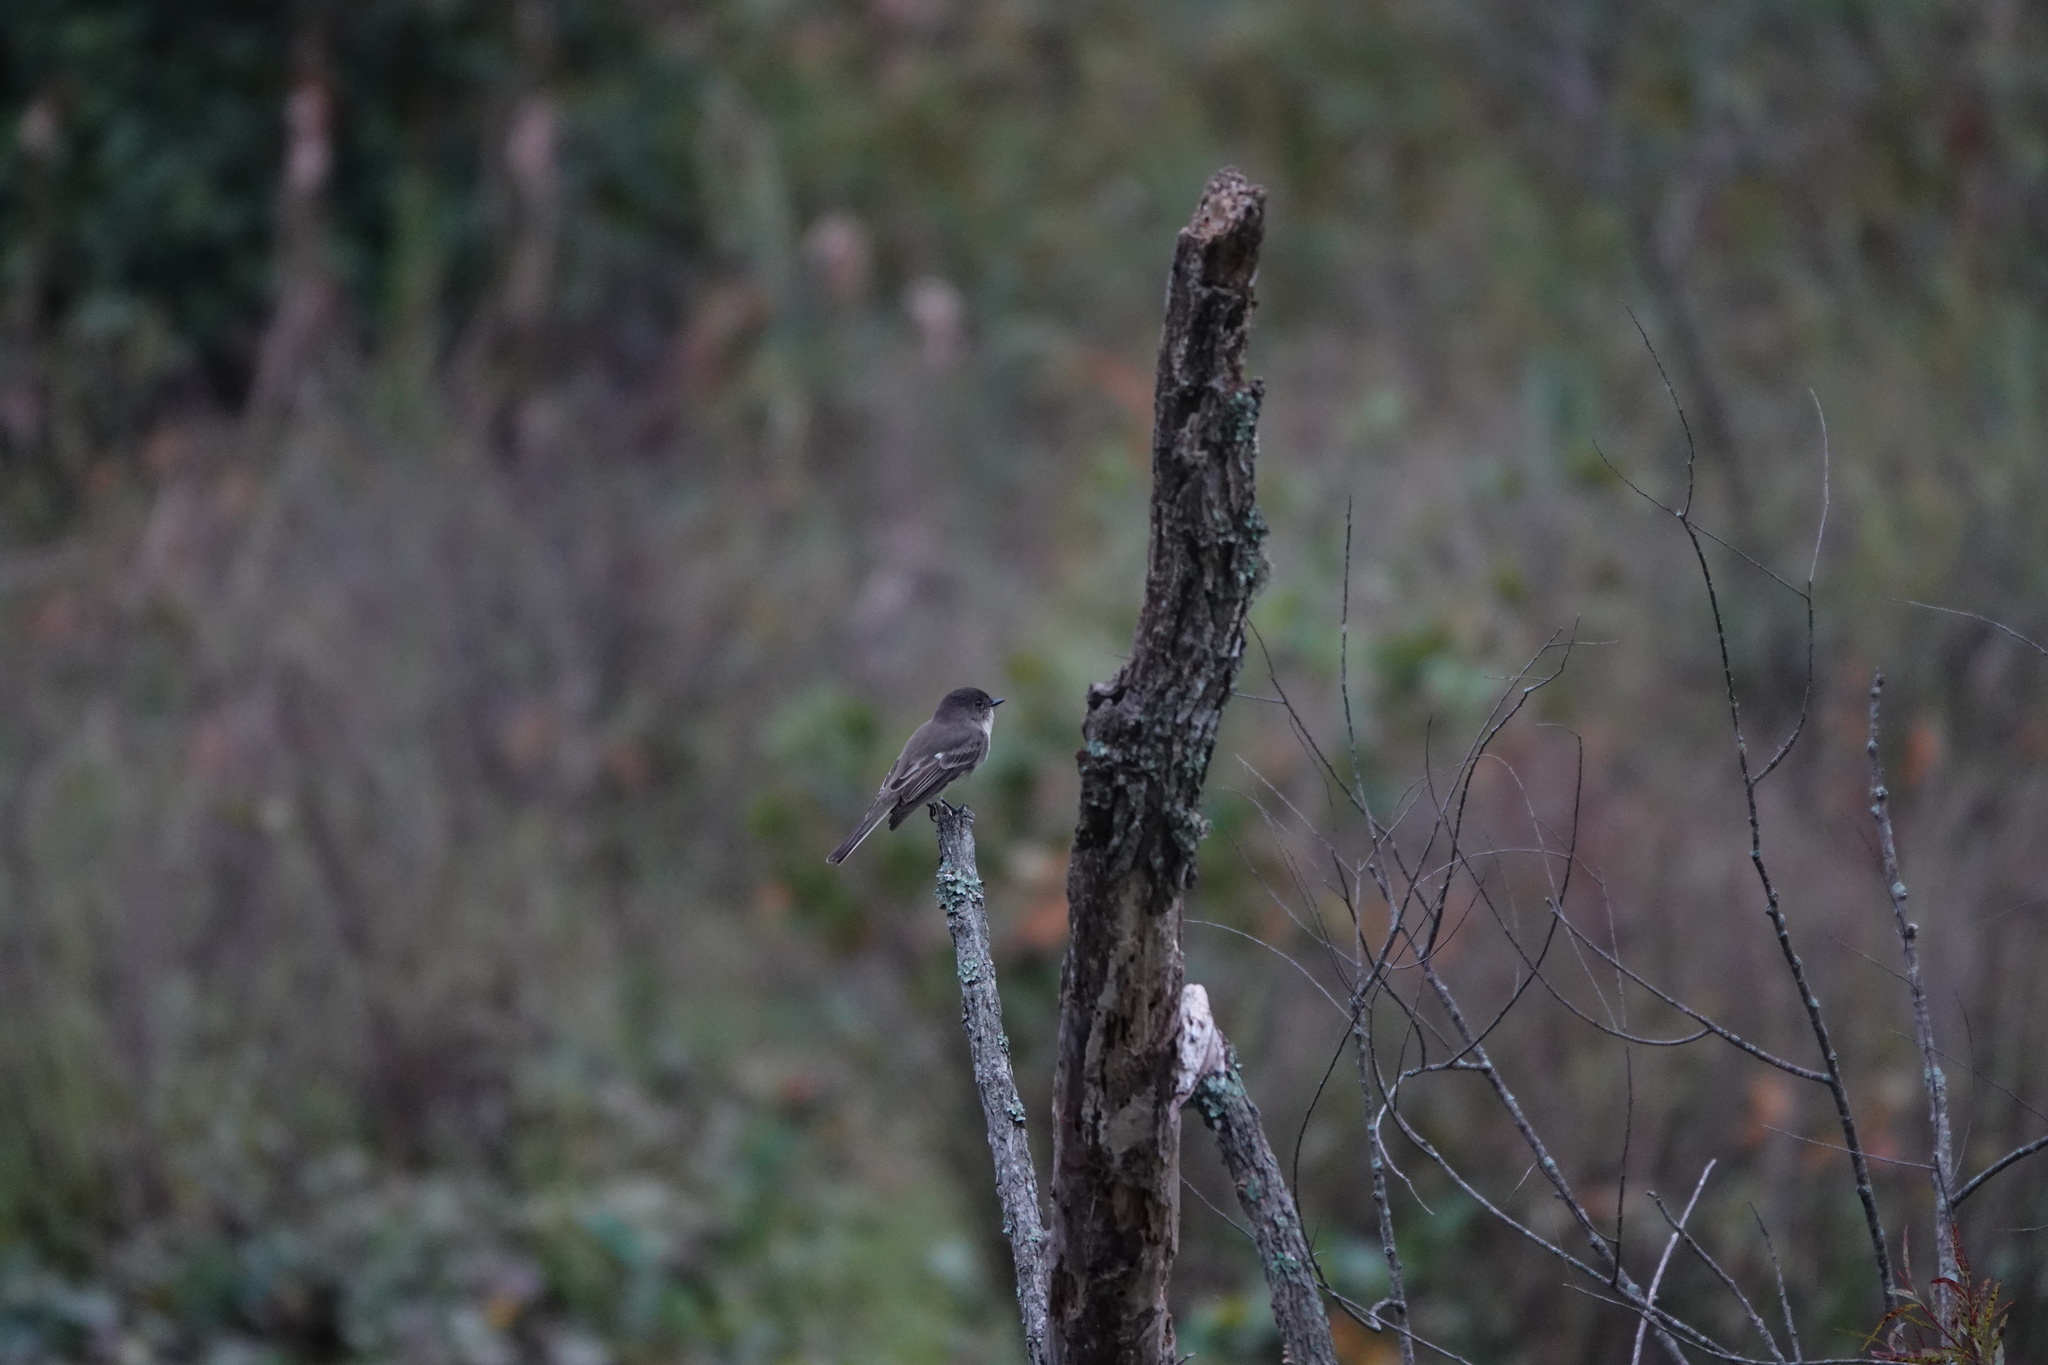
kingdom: Animalia
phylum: Chordata
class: Aves
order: Passeriformes
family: Tyrannidae
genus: Sayornis
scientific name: Sayornis phoebe
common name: Eastern phoebe
